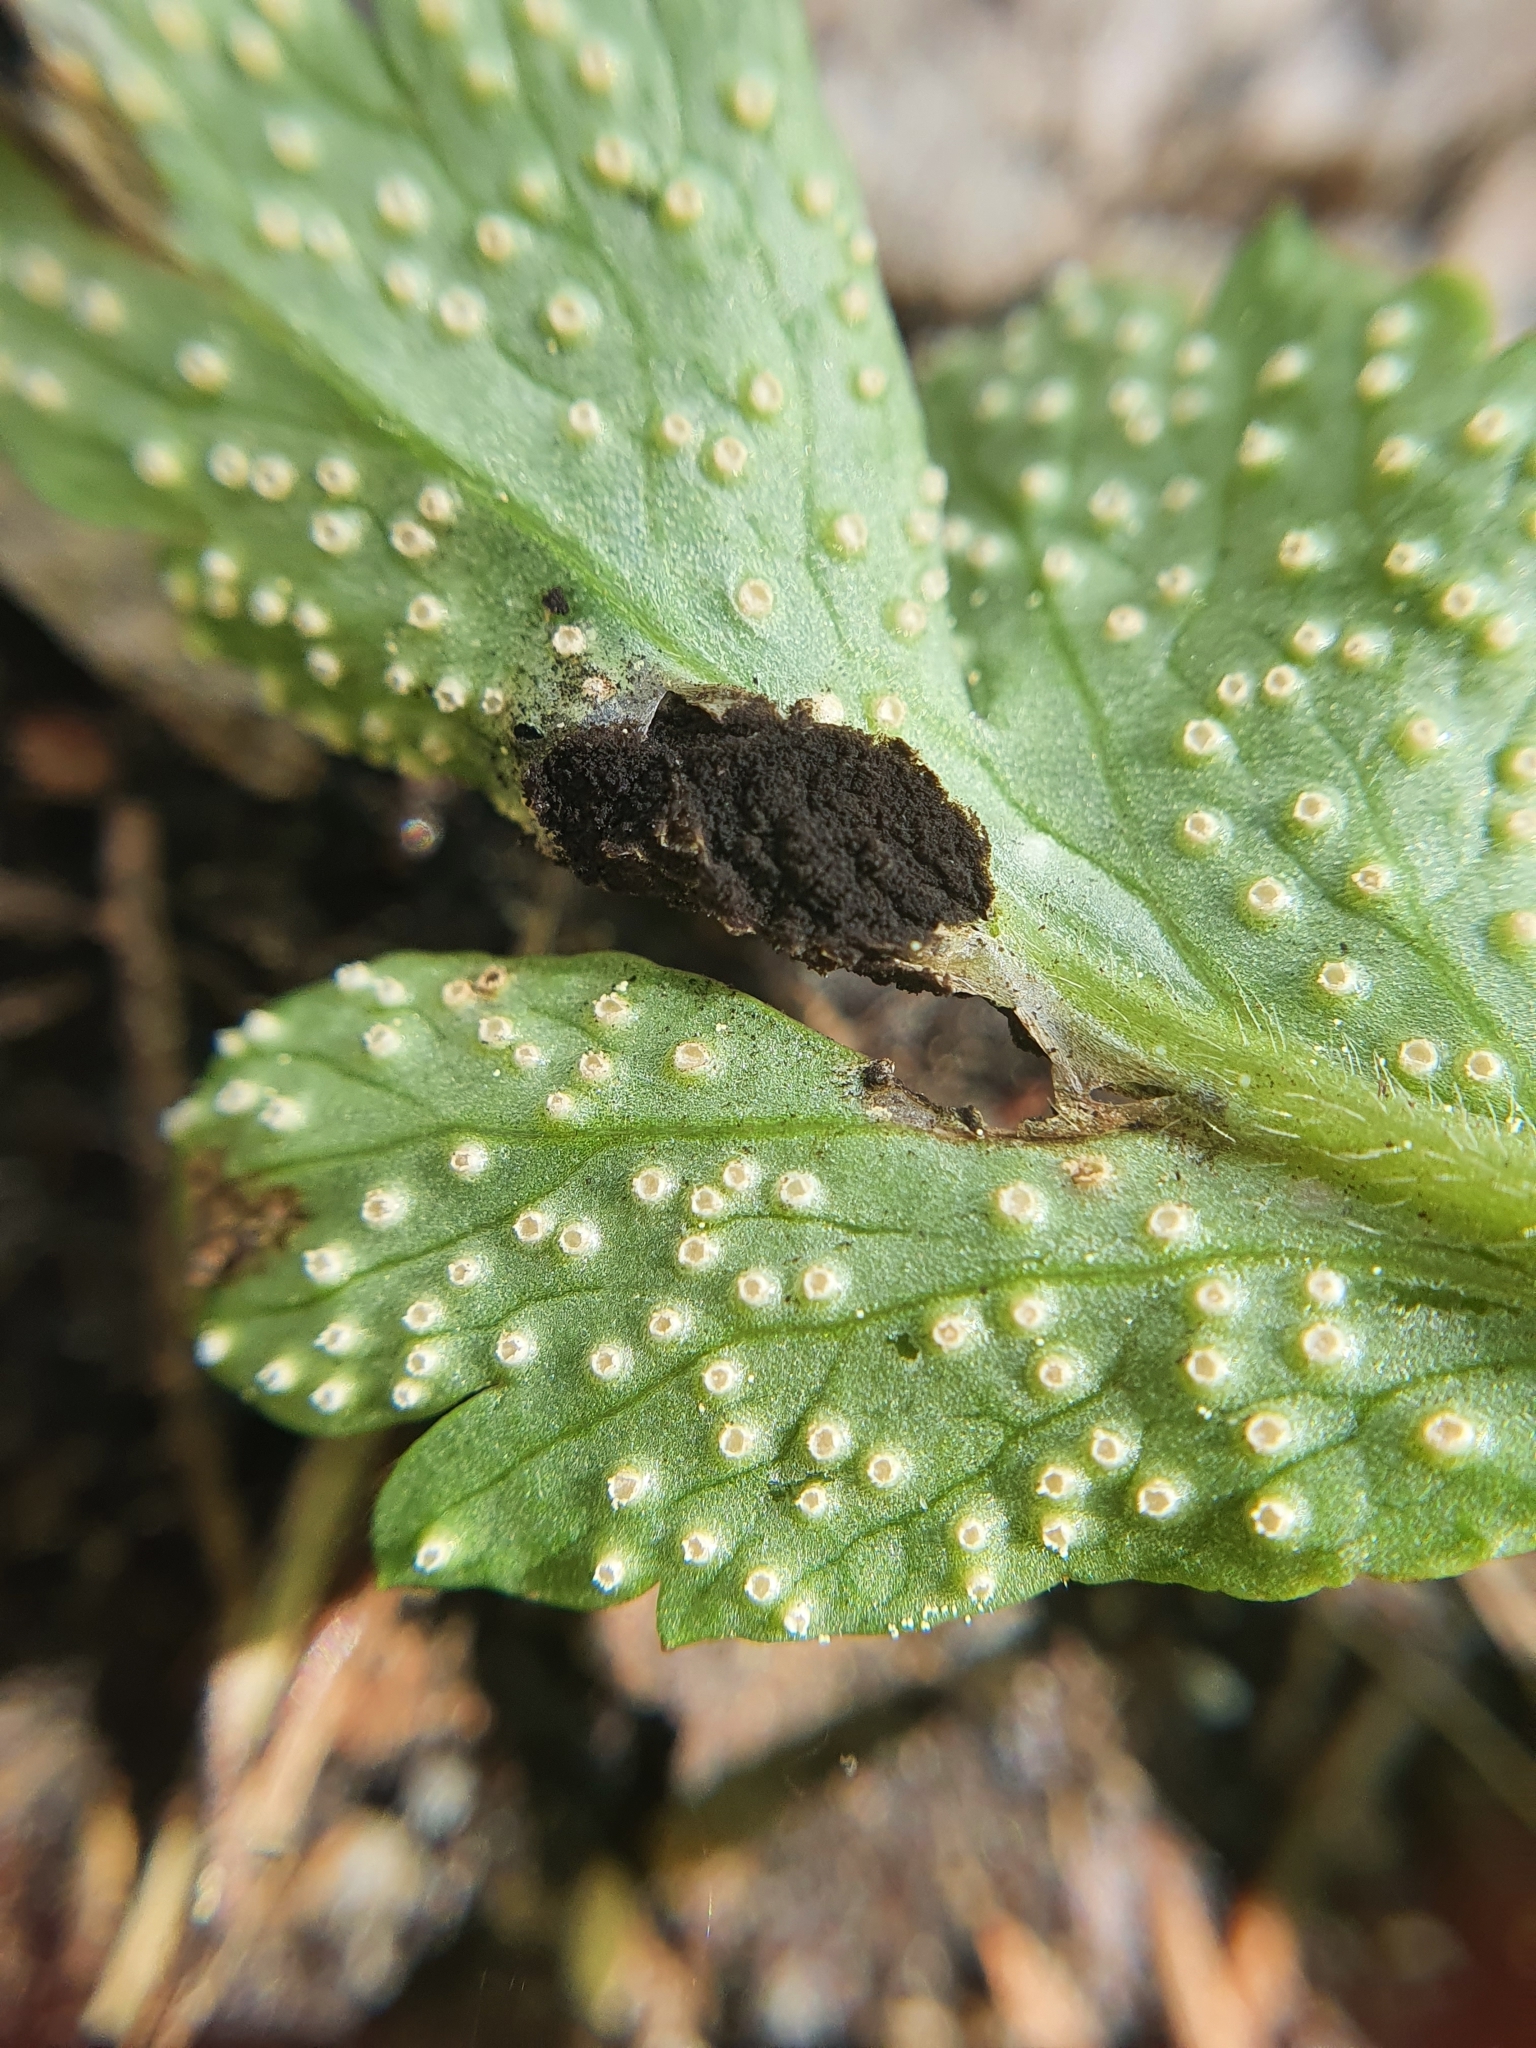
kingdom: Fungi
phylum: Basidiomycota
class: Ustilaginomycetes
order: Urocystidales
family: Urocystidaceae
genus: Urocystis
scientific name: Urocystis anemones
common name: Anemone smut
